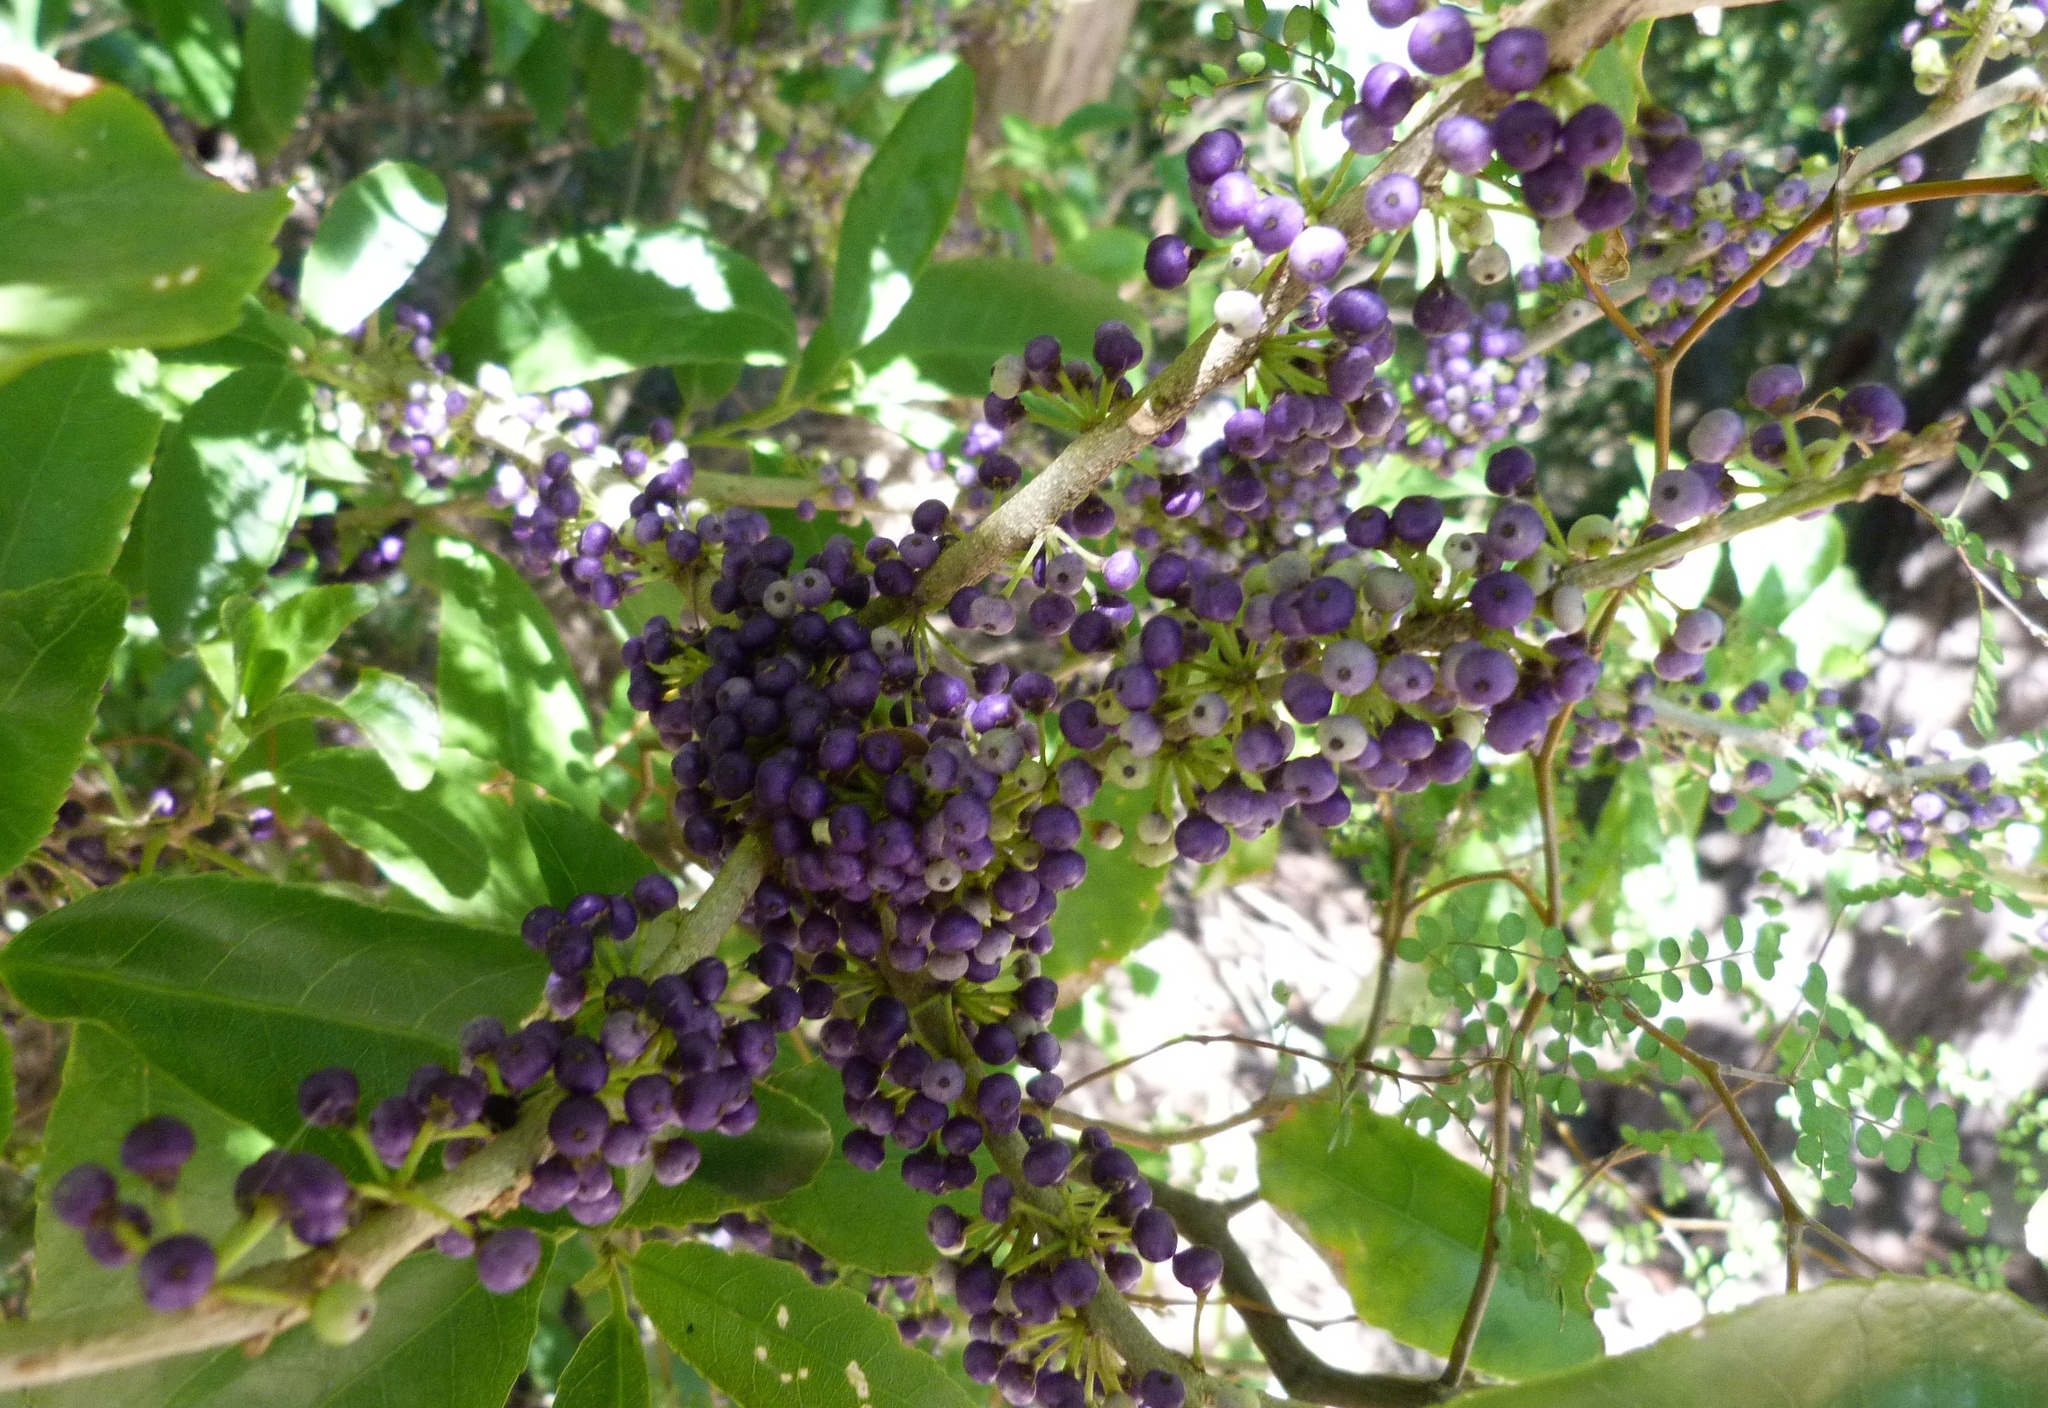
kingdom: Plantae
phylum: Tracheophyta
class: Magnoliopsida
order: Malpighiales
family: Violaceae
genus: Melicytus
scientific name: Melicytus ramiflorus
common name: Mahoe
